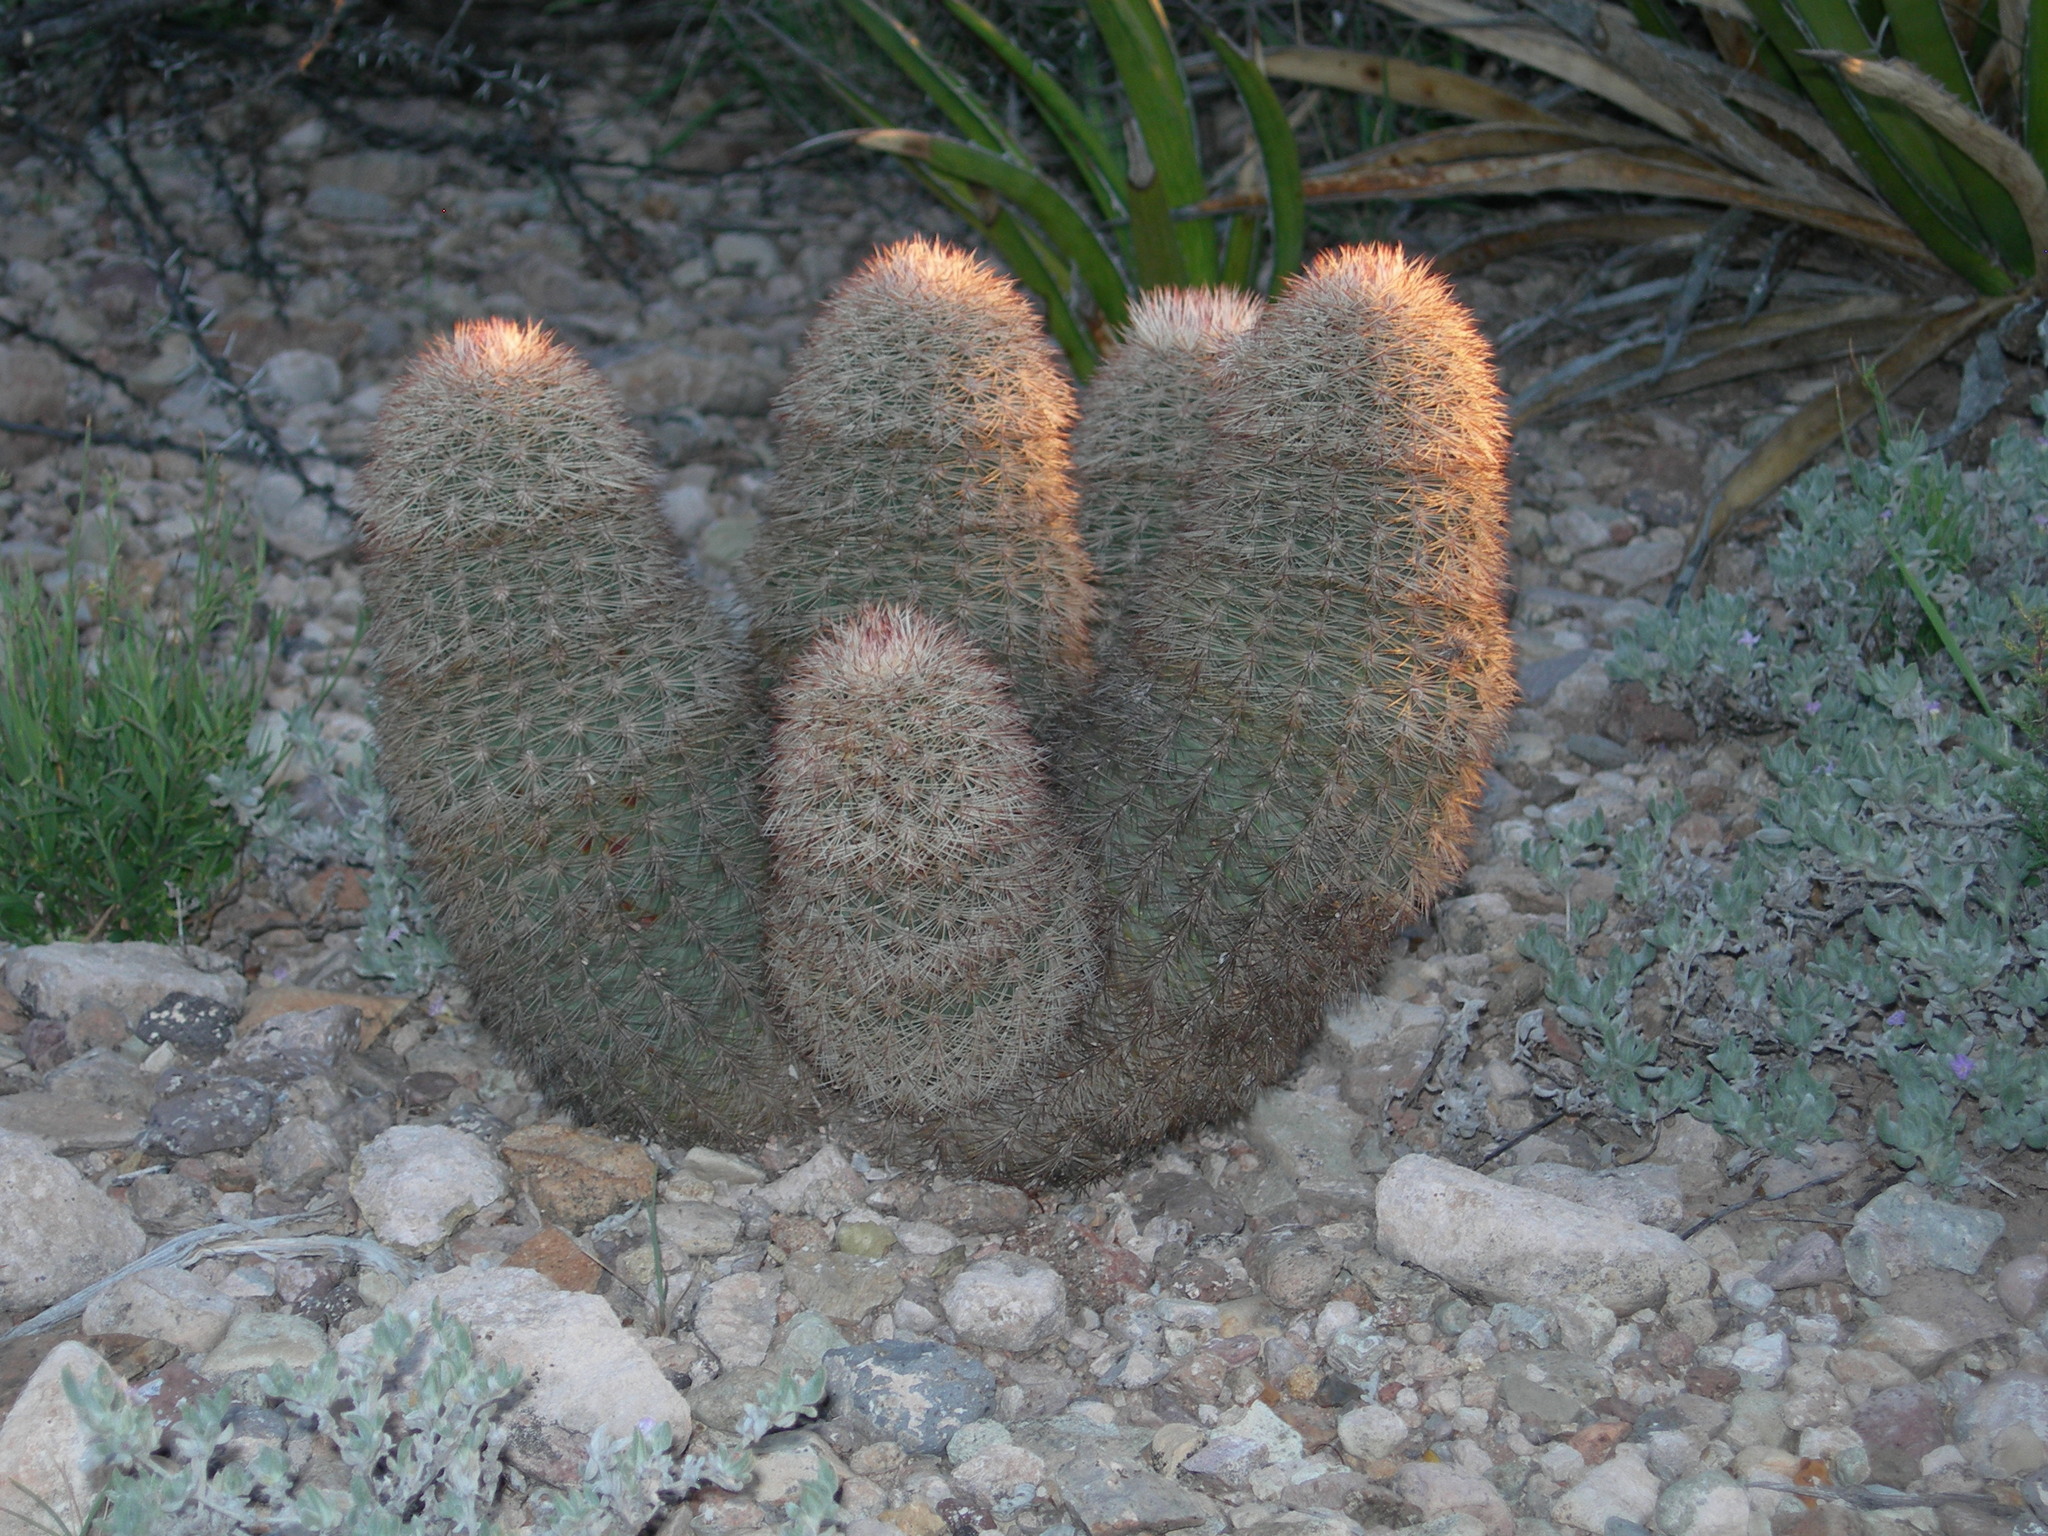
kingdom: Plantae
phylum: Tracheophyta
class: Magnoliopsida
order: Caryophyllales
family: Cactaceae
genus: Echinocereus
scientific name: Echinocereus dasyacanthus
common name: Spiny hedgehog cactus
